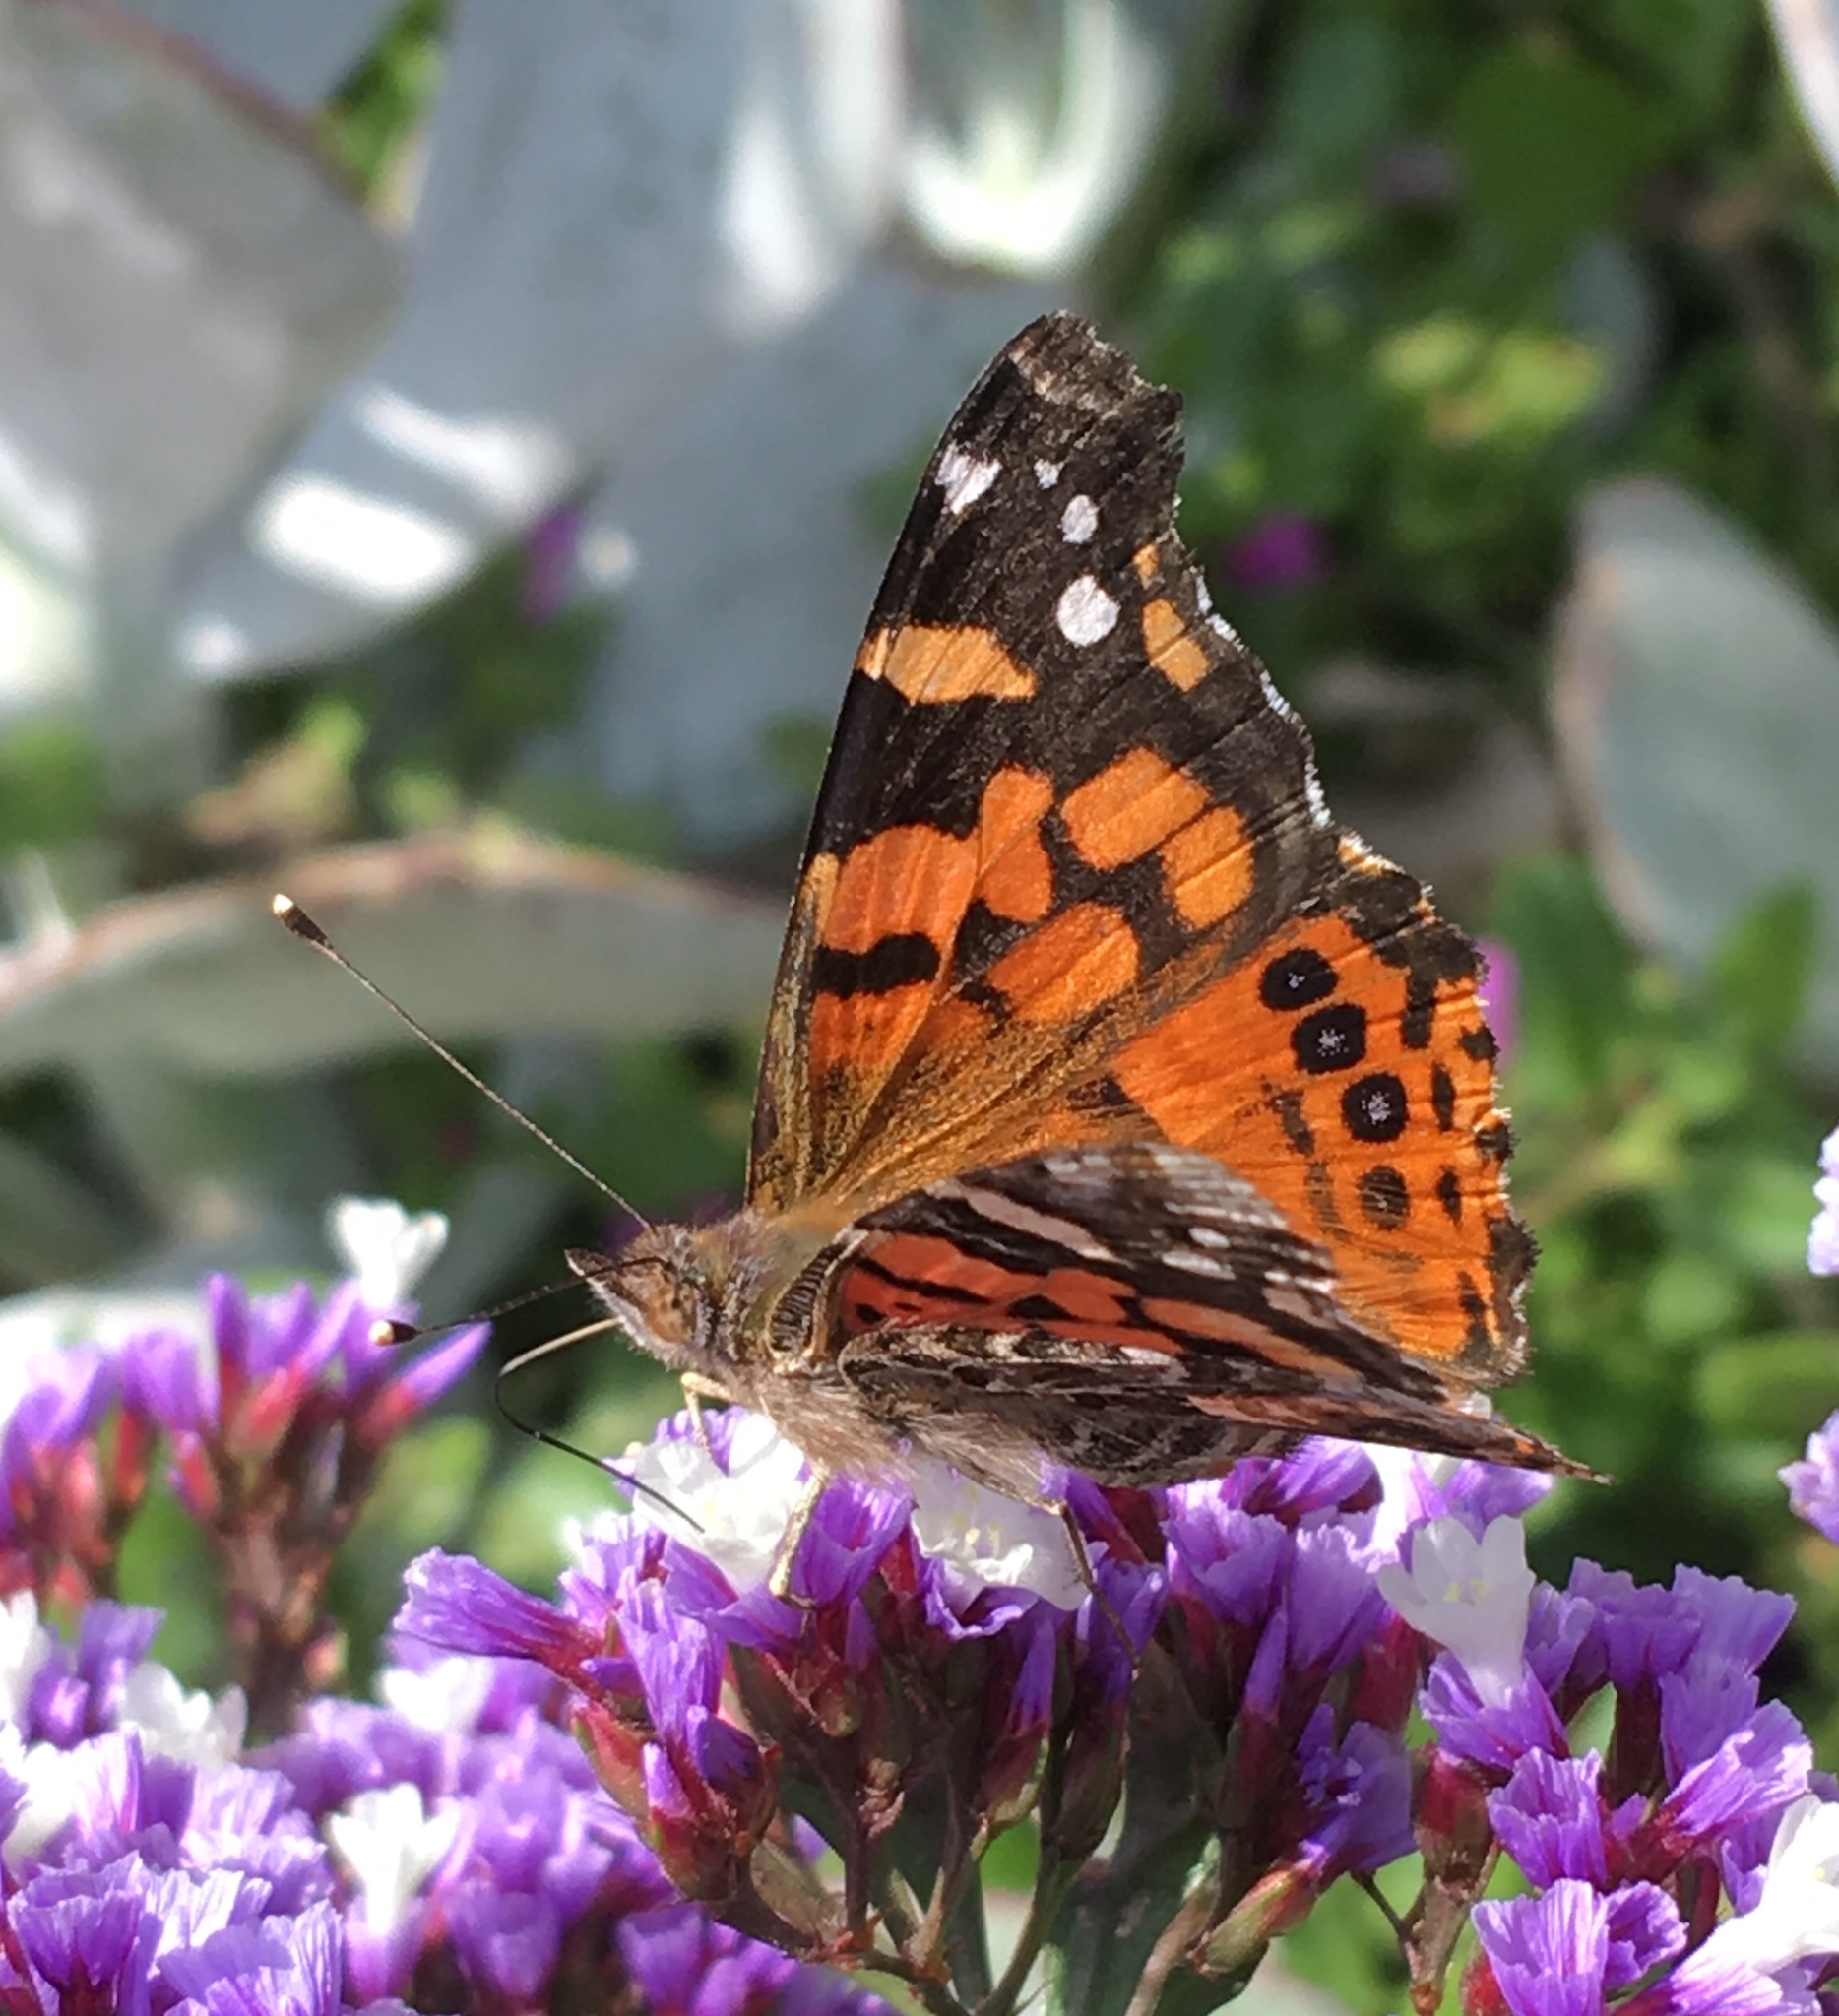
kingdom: Animalia
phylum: Arthropoda
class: Insecta
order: Lepidoptera
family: Nymphalidae
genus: Vanessa
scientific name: Vanessa carye
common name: Subtropical lady
